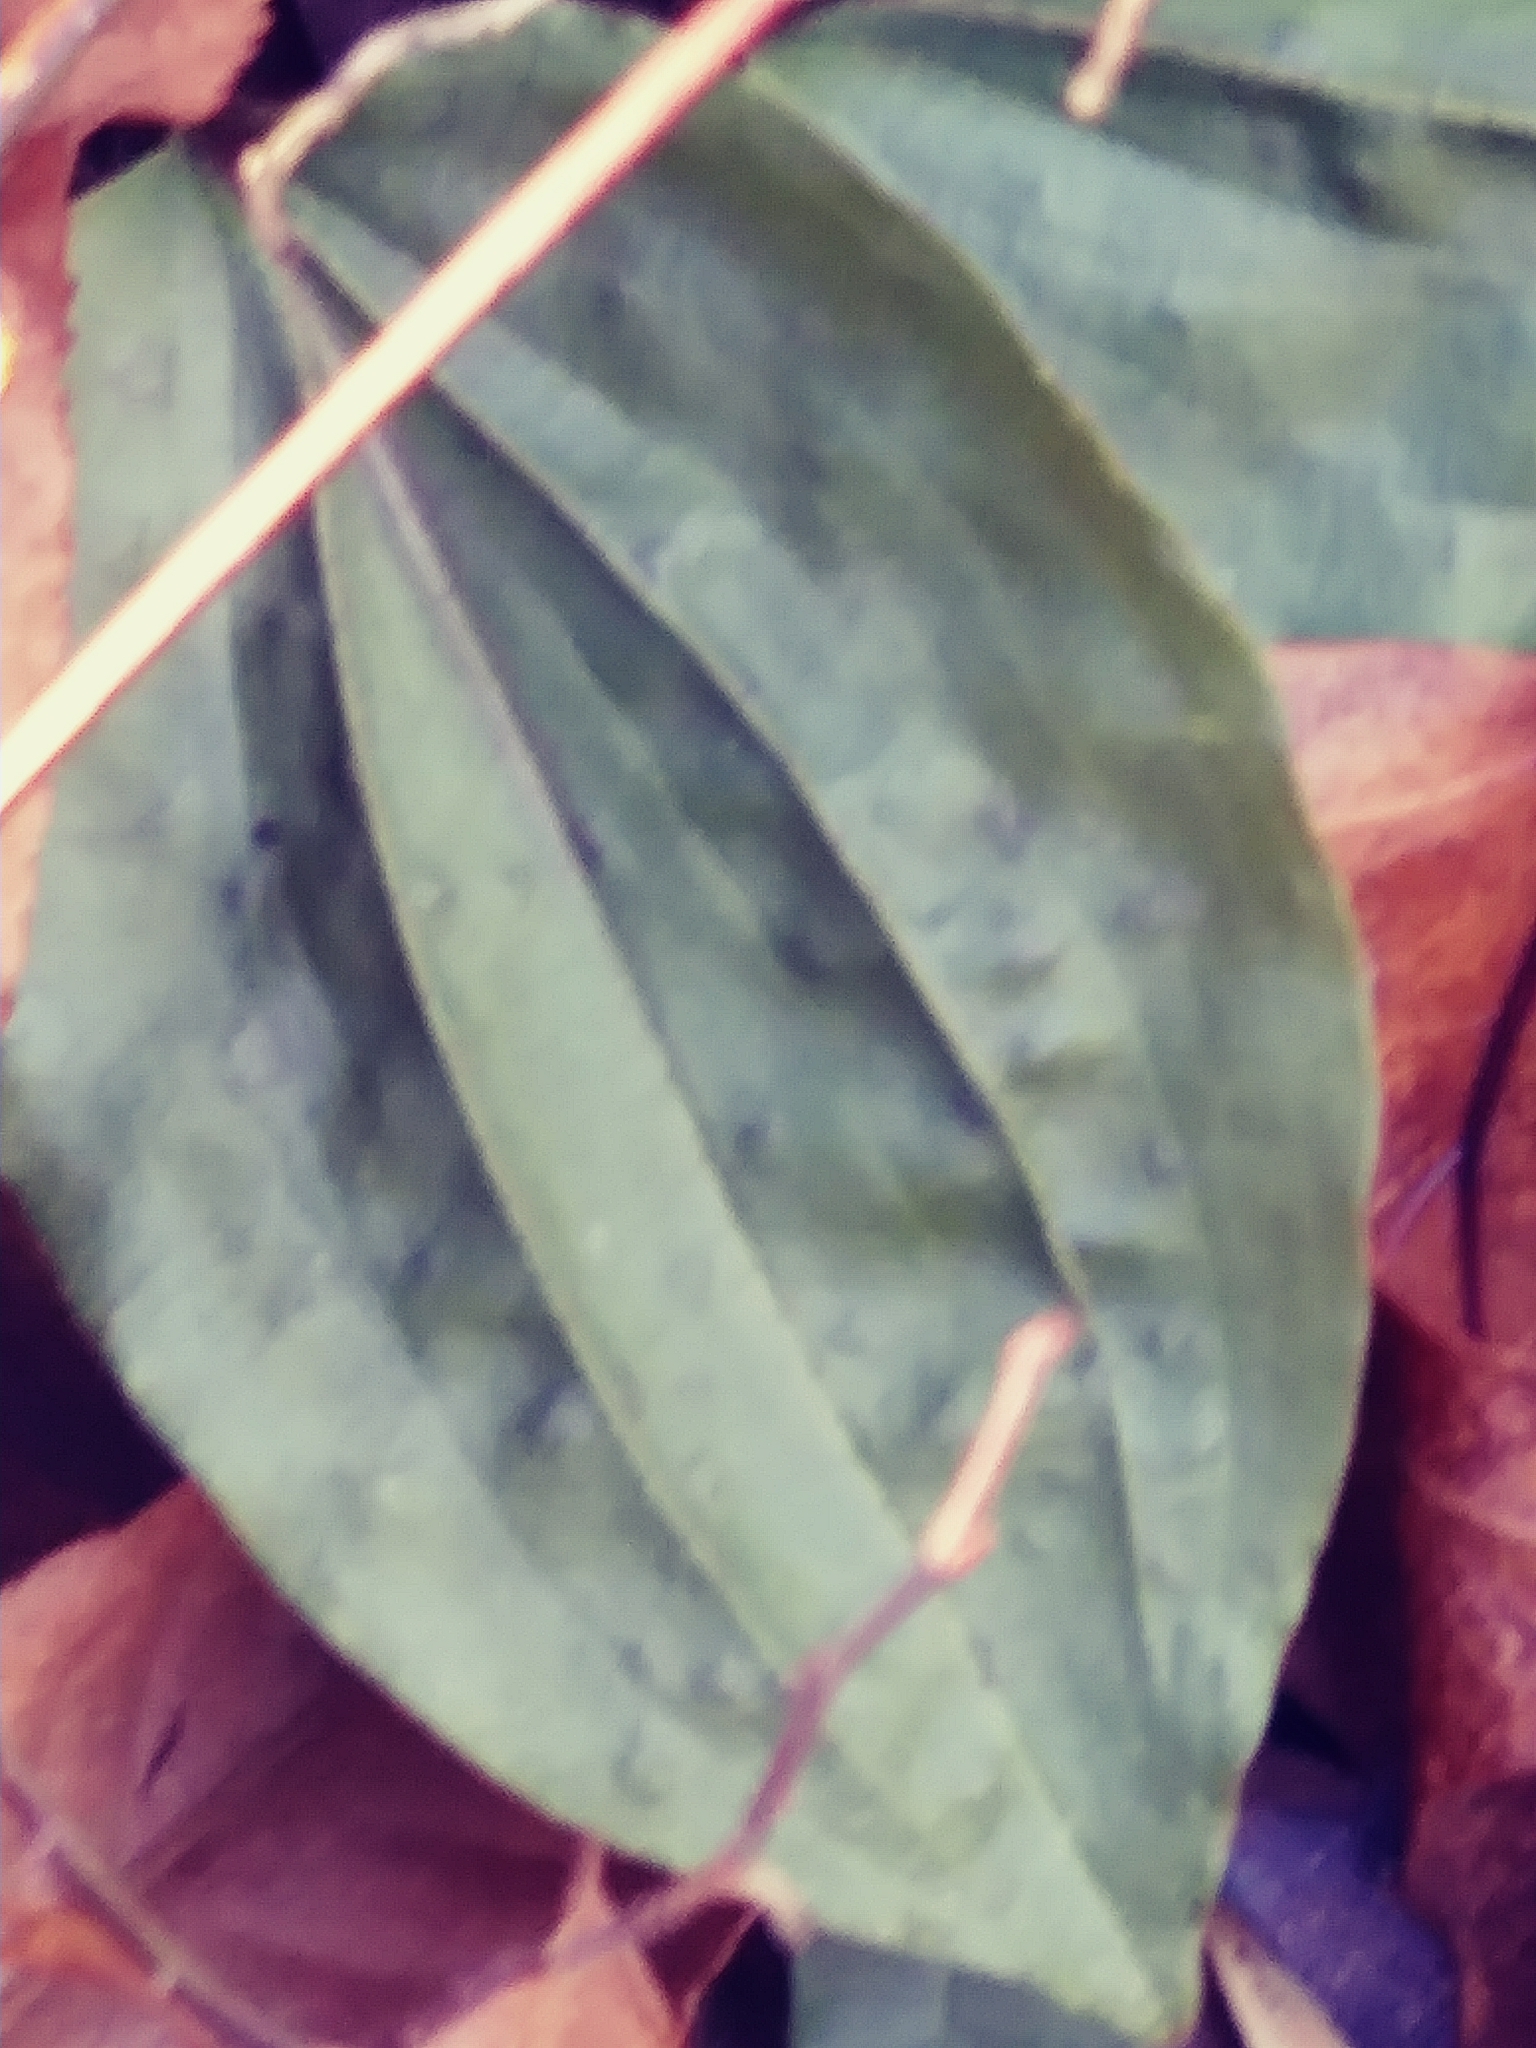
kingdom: Plantae
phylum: Tracheophyta
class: Liliopsida
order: Asparagales
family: Orchidaceae
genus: Tipularia
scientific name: Tipularia discolor
